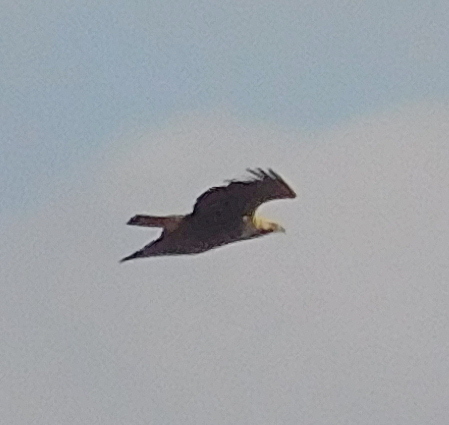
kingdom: Animalia
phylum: Chordata
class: Aves
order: Accipitriformes
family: Accipitridae
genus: Aquila
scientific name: Aquila heliaca
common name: Eastern imperial eagle
